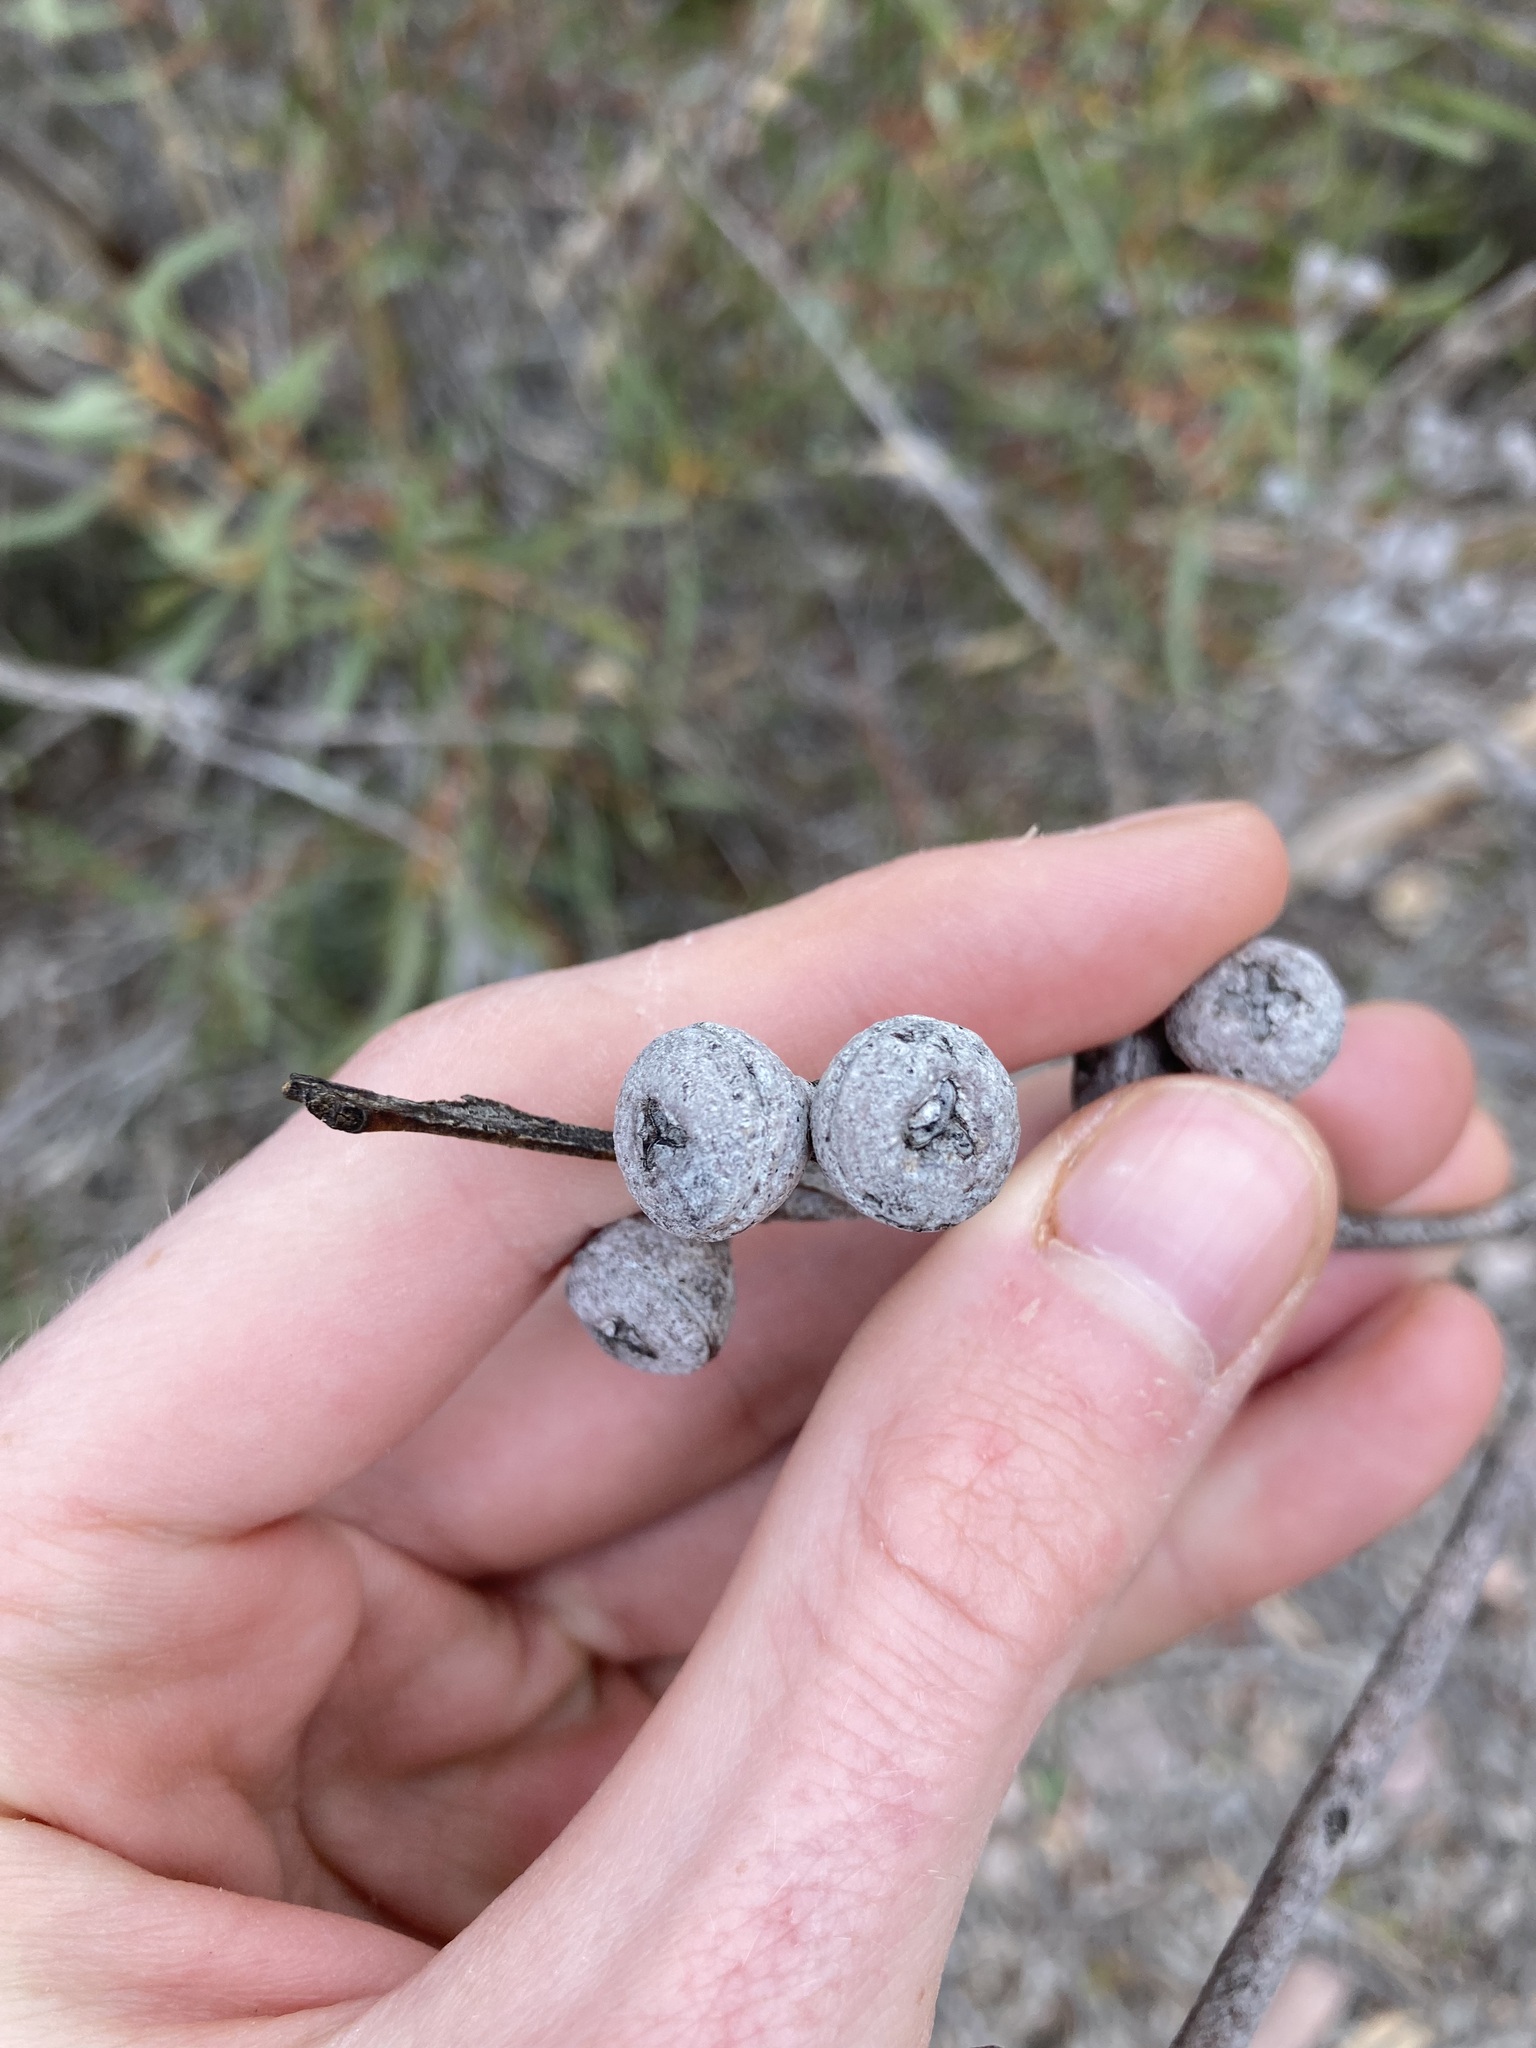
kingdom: Plantae
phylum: Tracheophyta
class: Magnoliopsida
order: Myrtales
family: Myrtaceae
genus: Eucalyptus
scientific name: Eucalyptus pachyloma
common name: Kalgan plains mallee
